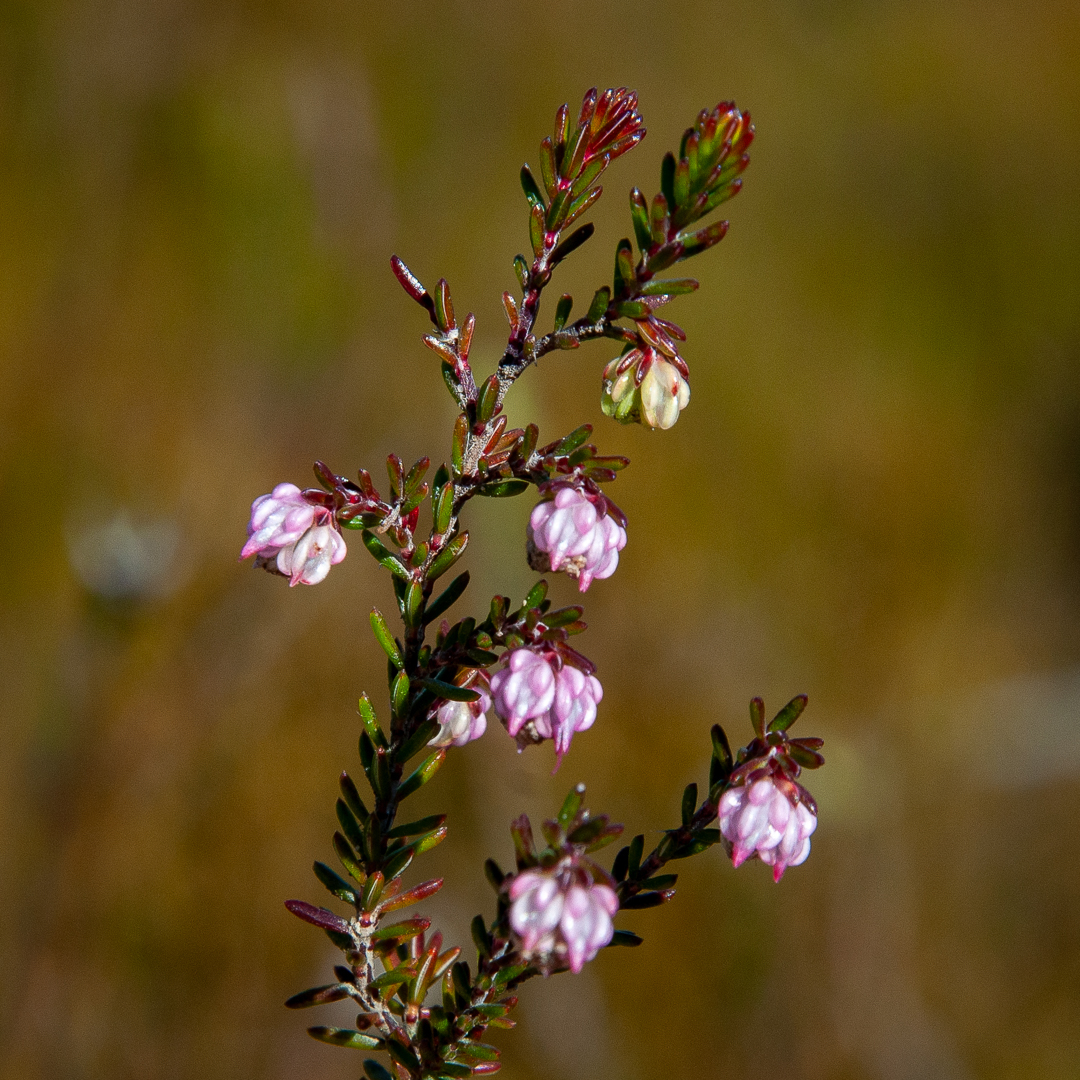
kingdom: Plantae
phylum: Tracheophyta
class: Magnoliopsida
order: Ericales
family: Ericaceae
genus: Erica
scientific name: Erica amphigena
